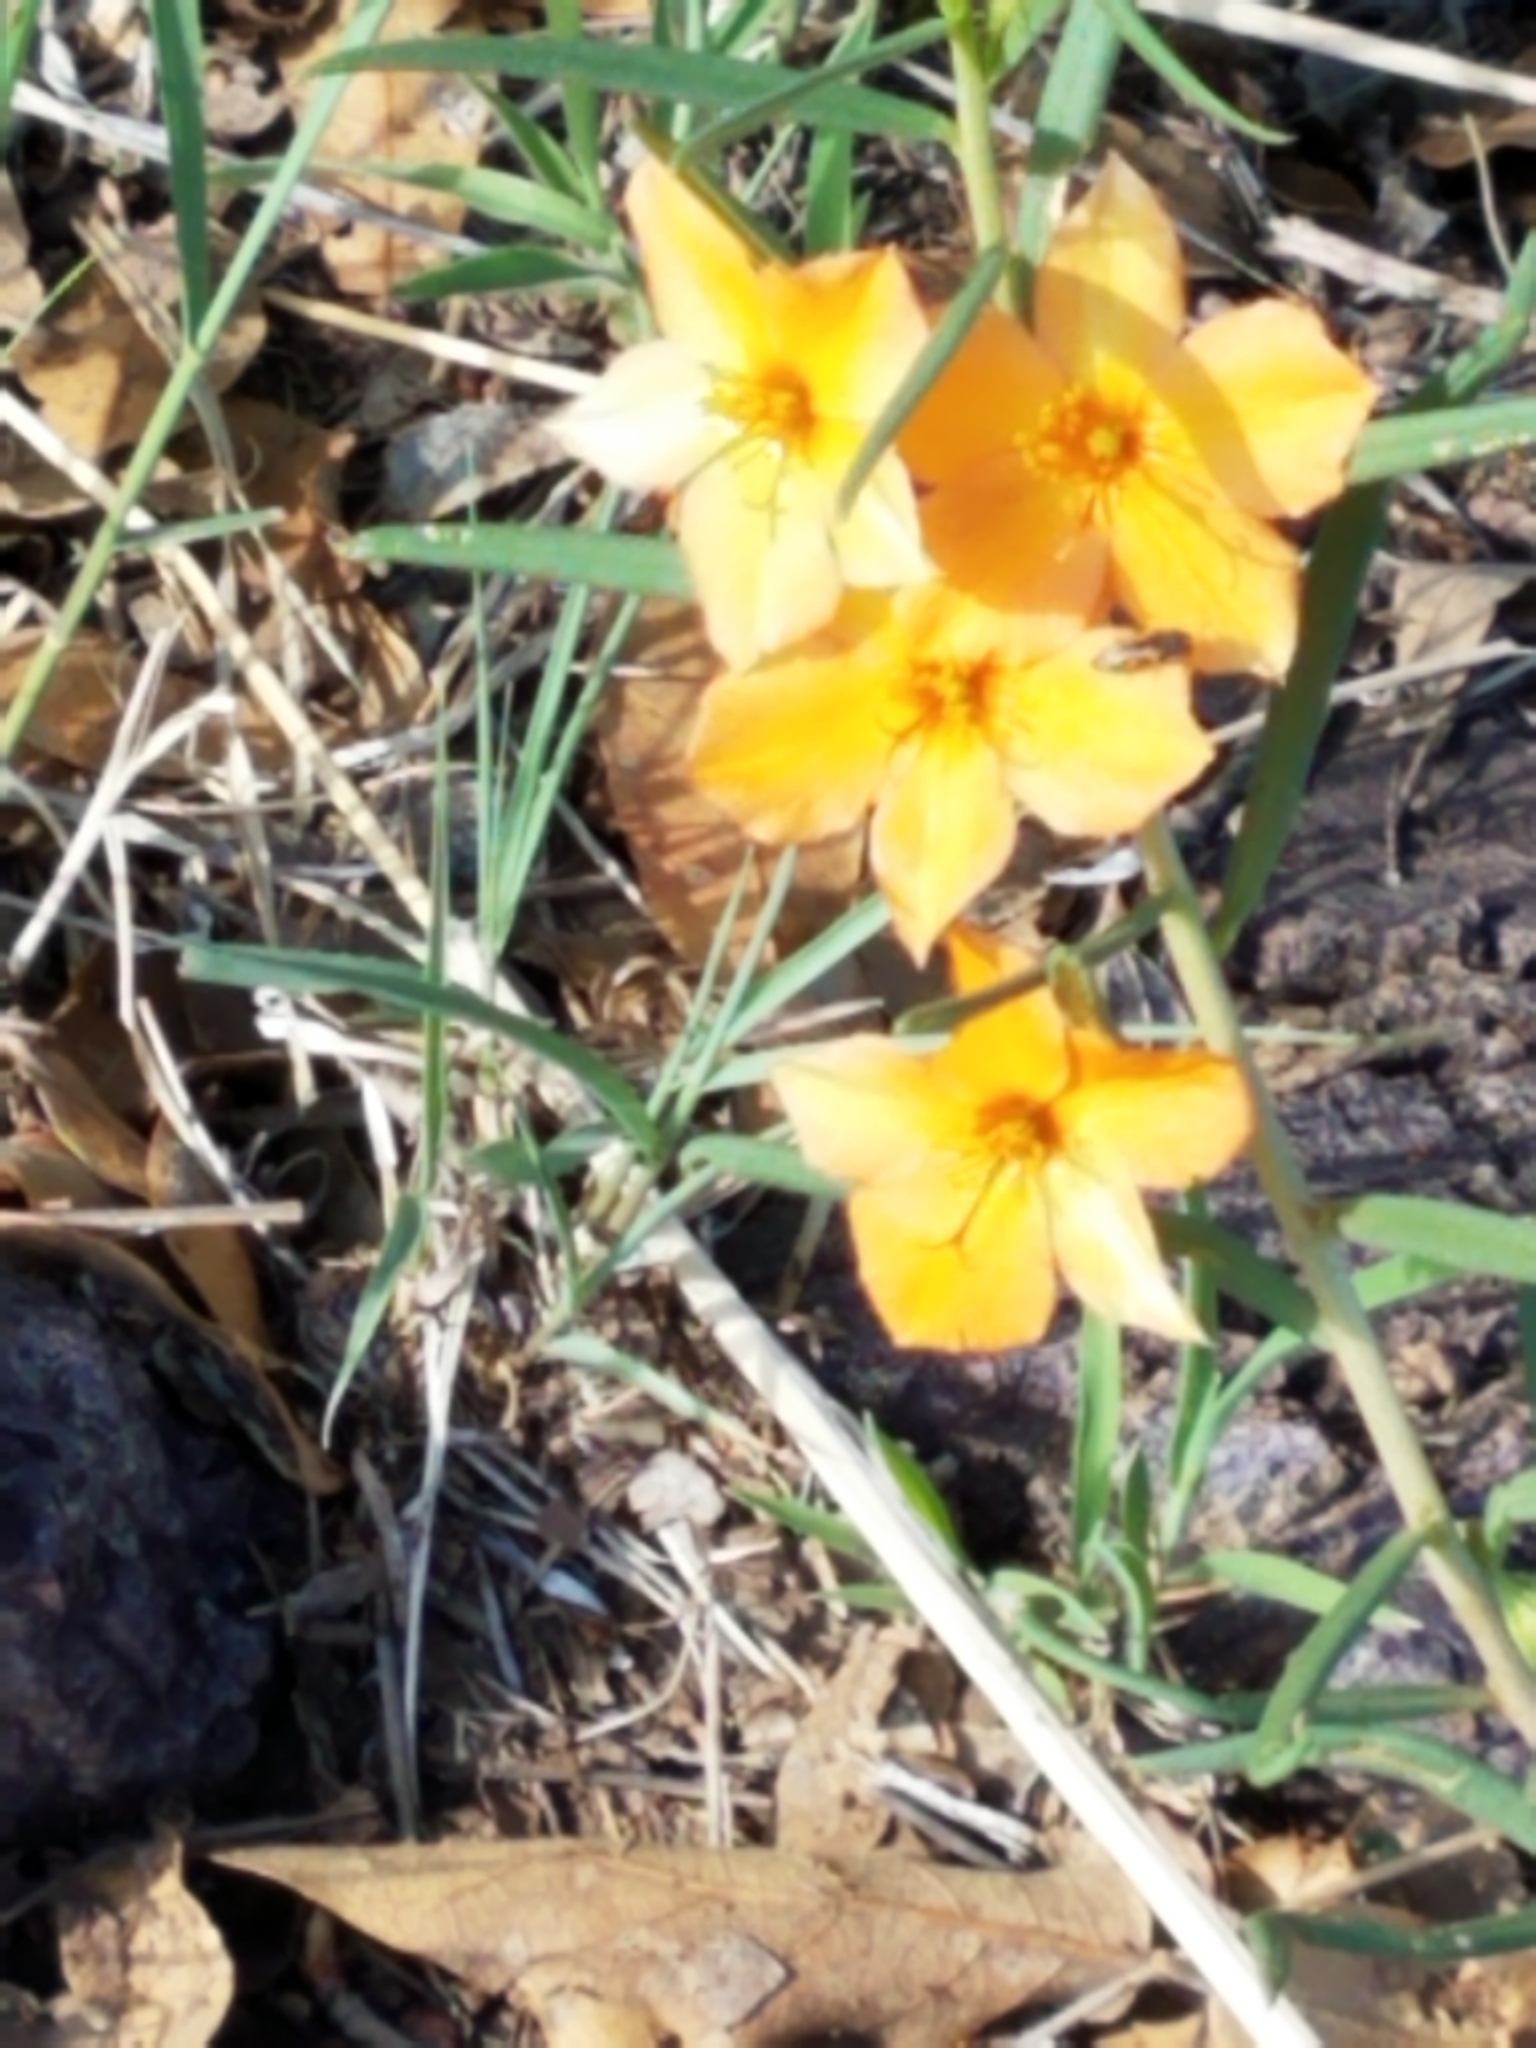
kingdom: Plantae
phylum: Tracheophyta
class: Magnoliopsida
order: Caryophyllales
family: Montiaceae
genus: Phemeranthus
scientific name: Phemeranthus aurantiacus
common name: Orange fameflower
